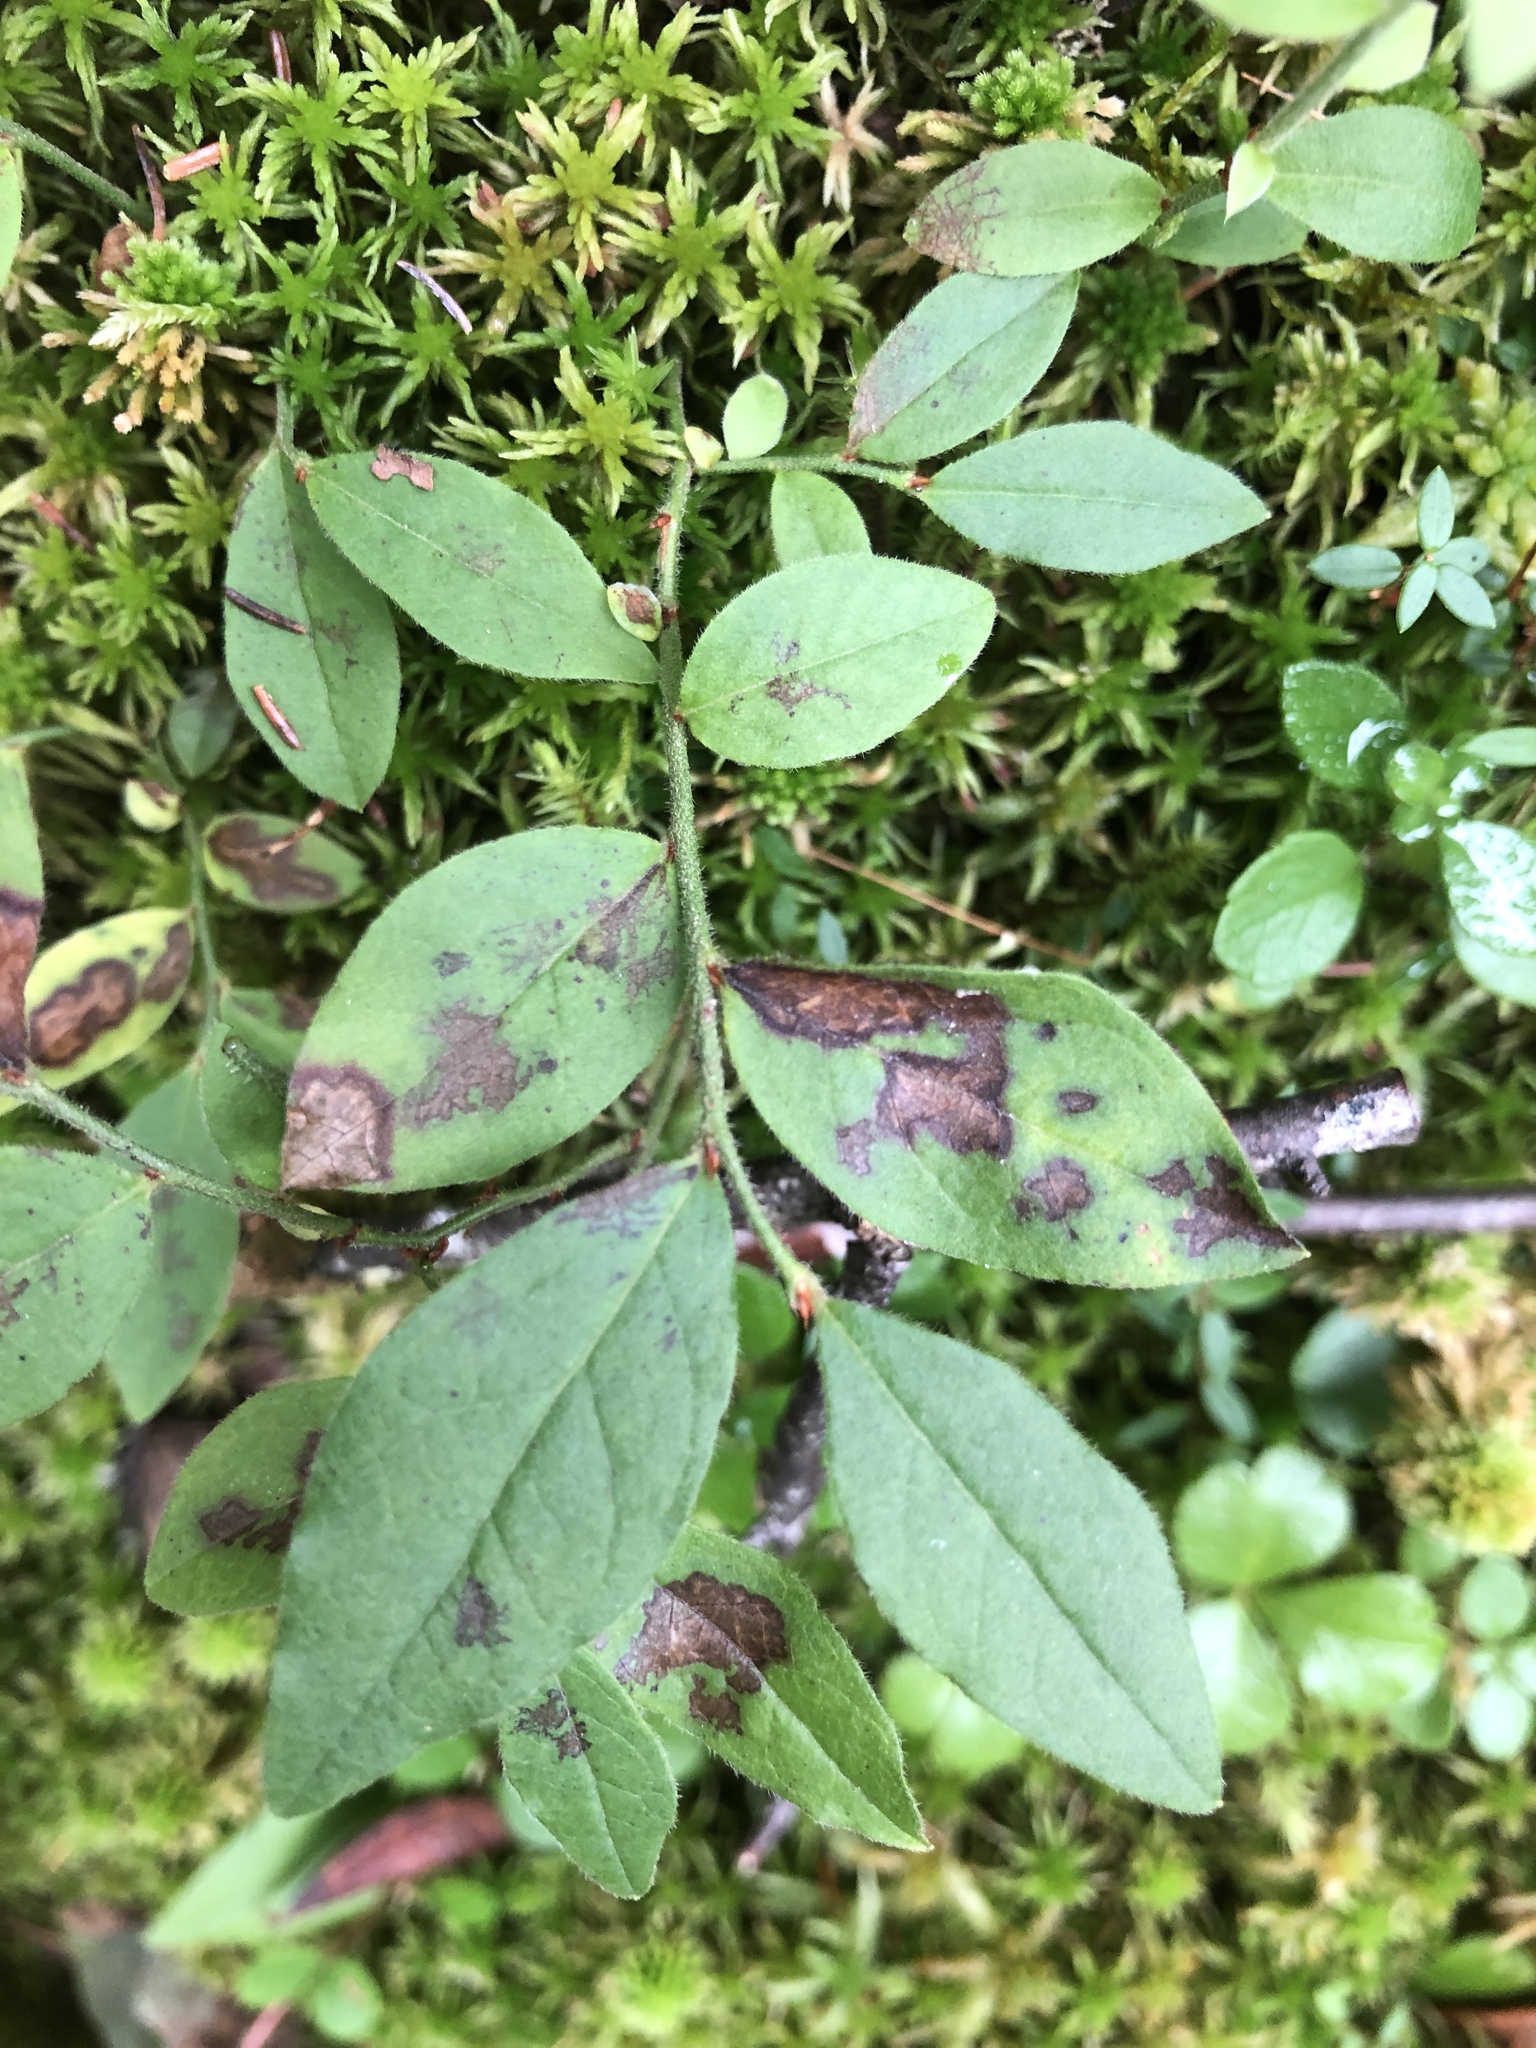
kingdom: Plantae
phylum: Tracheophyta
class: Magnoliopsida
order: Ericales
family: Ericaceae
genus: Vaccinium
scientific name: Vaccinium myrtilloides
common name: Canada blueberry
